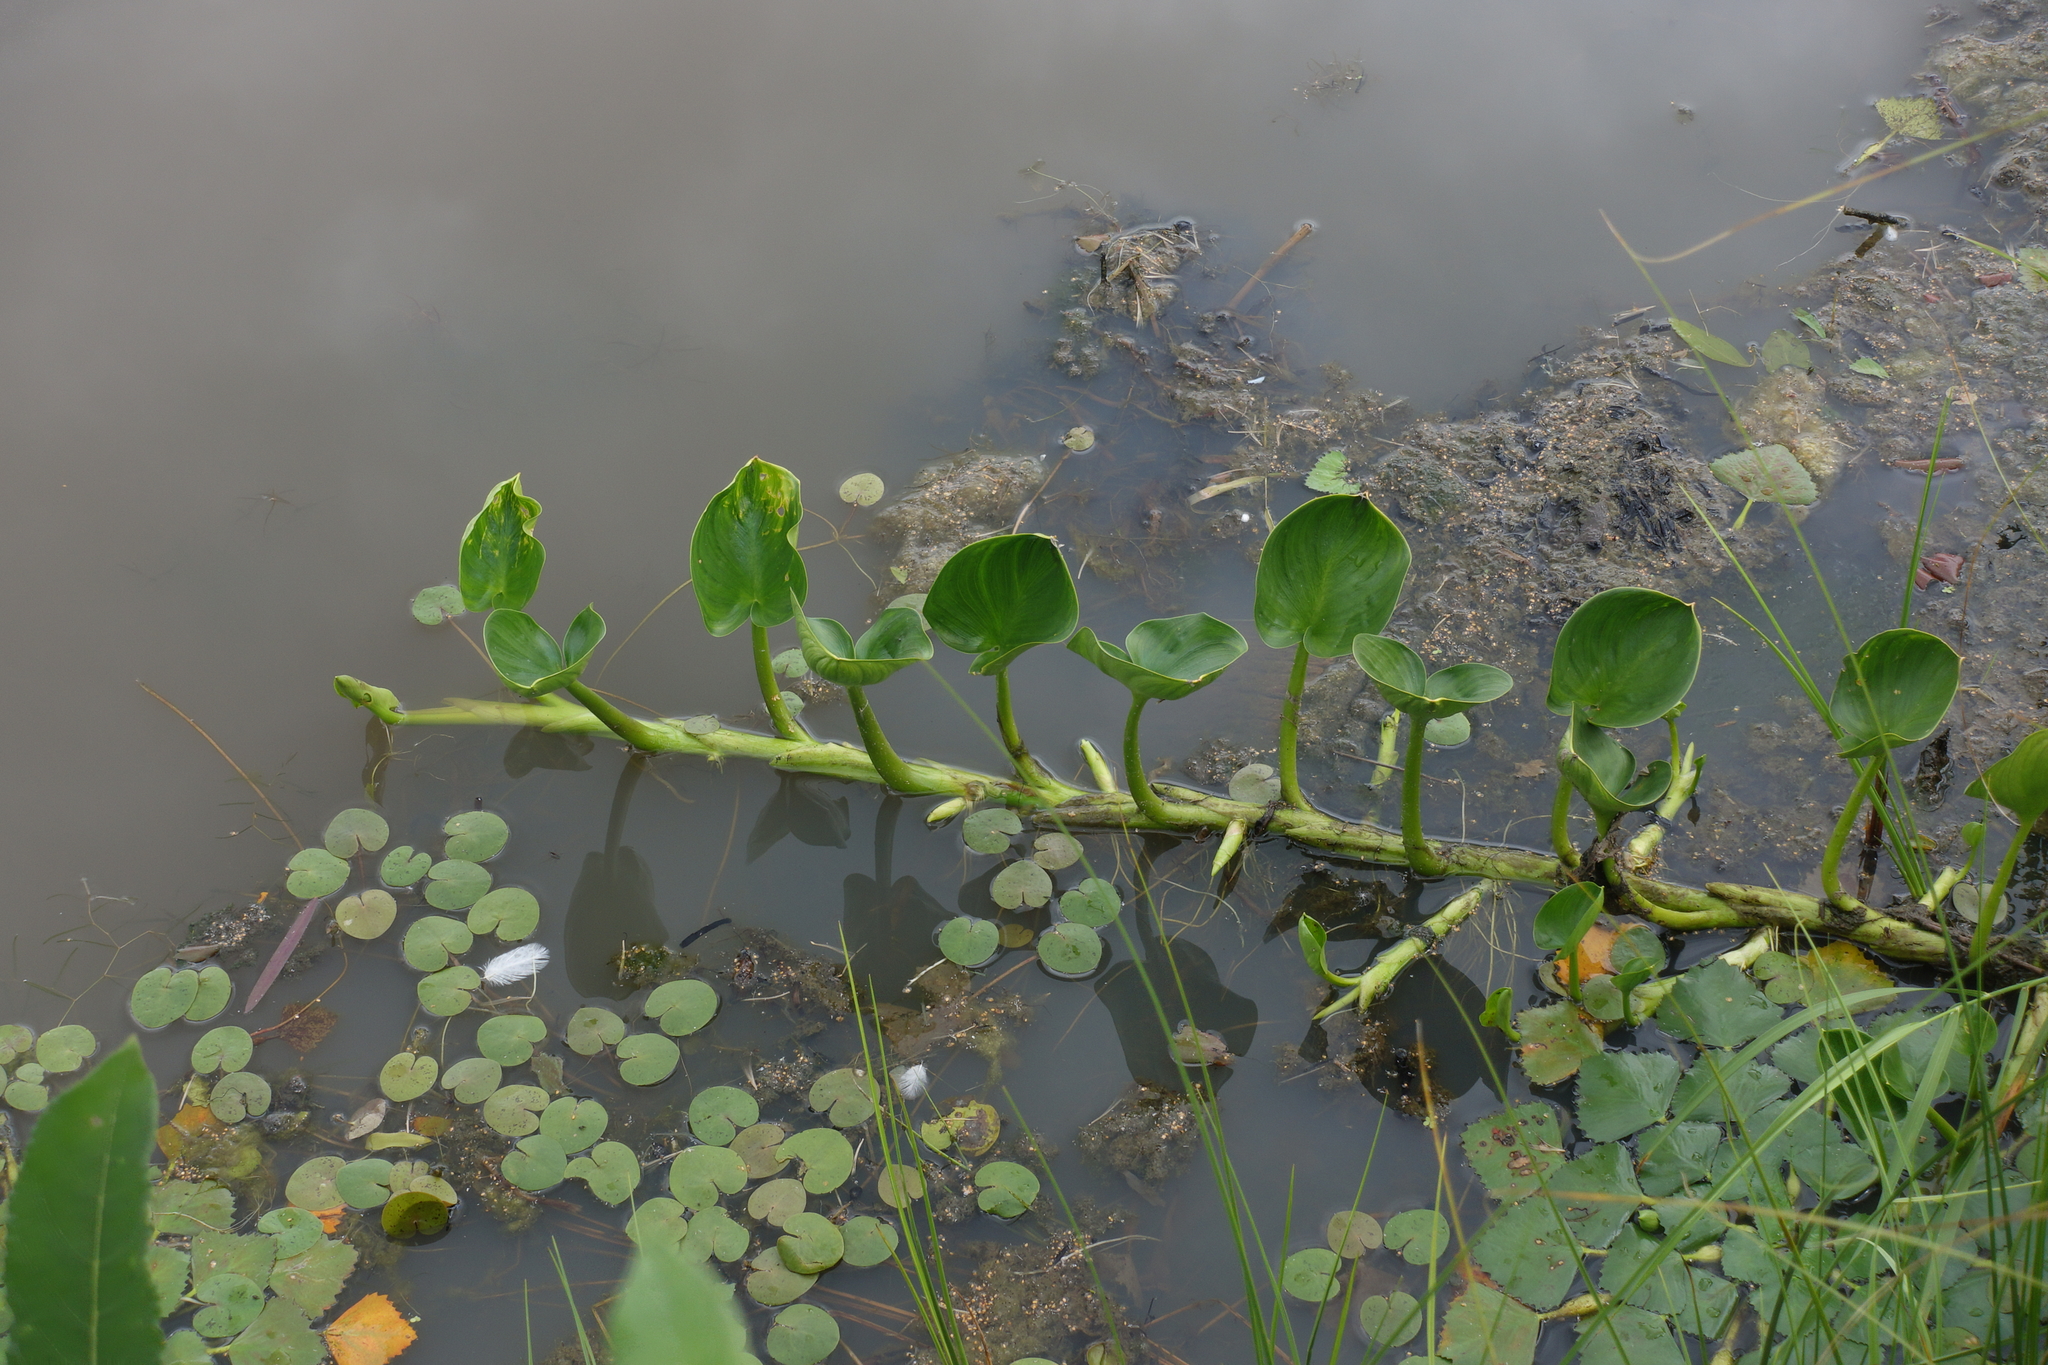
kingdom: Plantae
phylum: Tracheophyta
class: Liliopsida
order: Alismatales
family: Hydrocharitaceae
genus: Hydrocharis
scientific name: Hydrocharis morsus-ranae
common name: Frogbit
